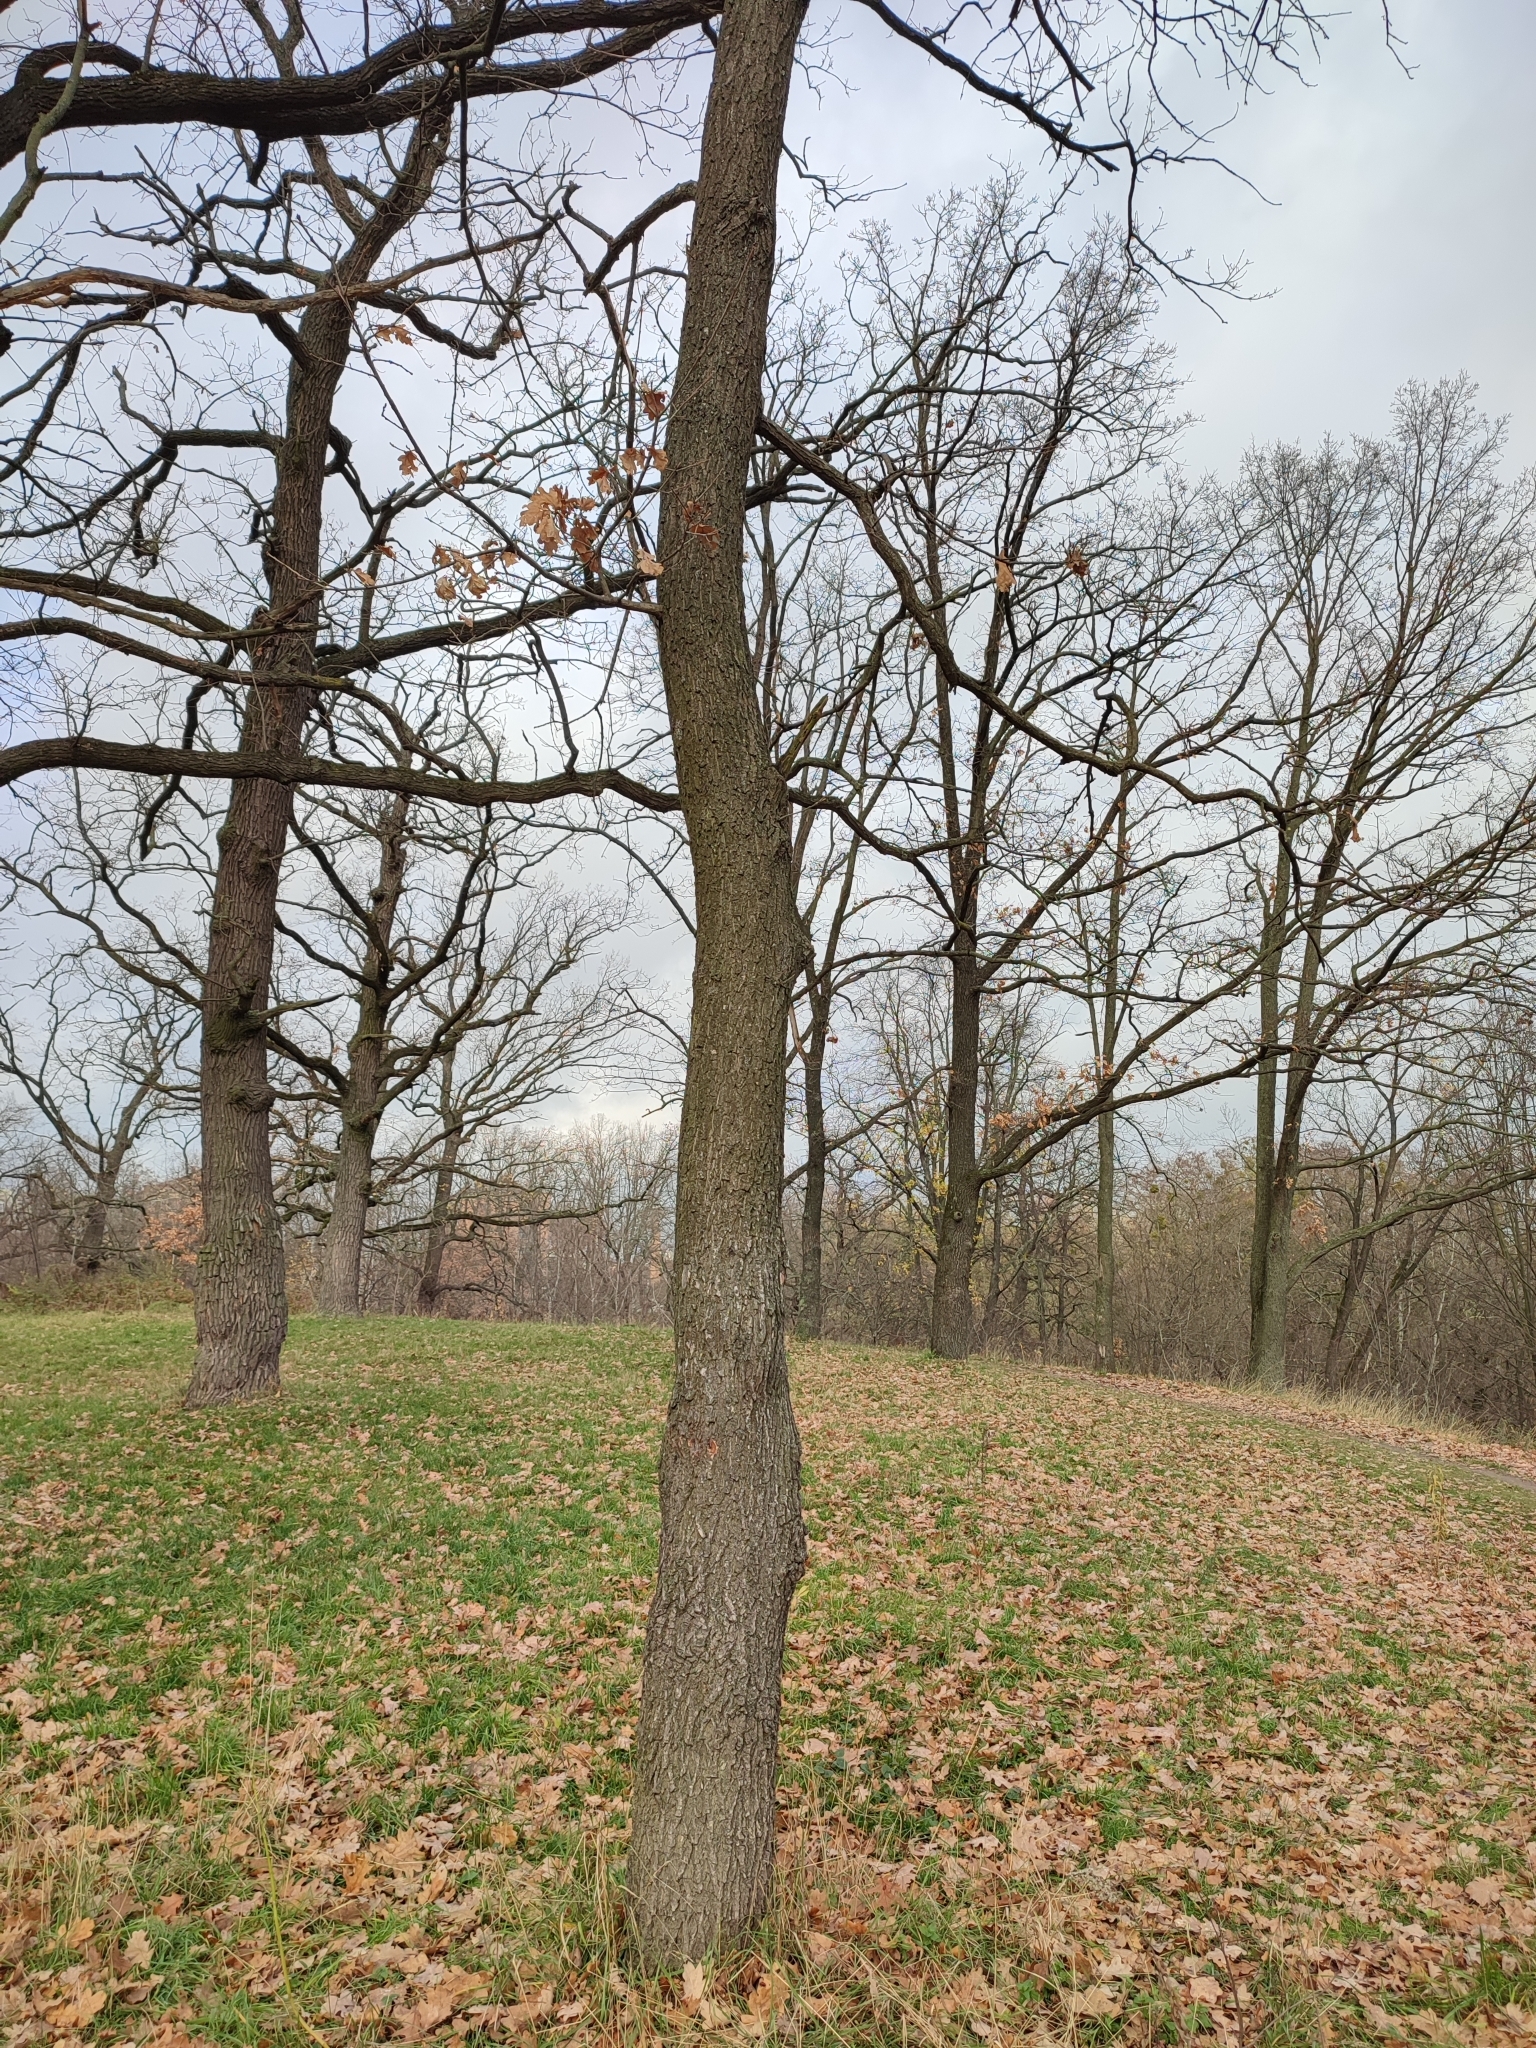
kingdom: Plantae
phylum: Tracheophyta
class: Magnoliopsida
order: Fagales
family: Fagaceae
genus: Quercus
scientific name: Quercus robur
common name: Pedunculate oak
